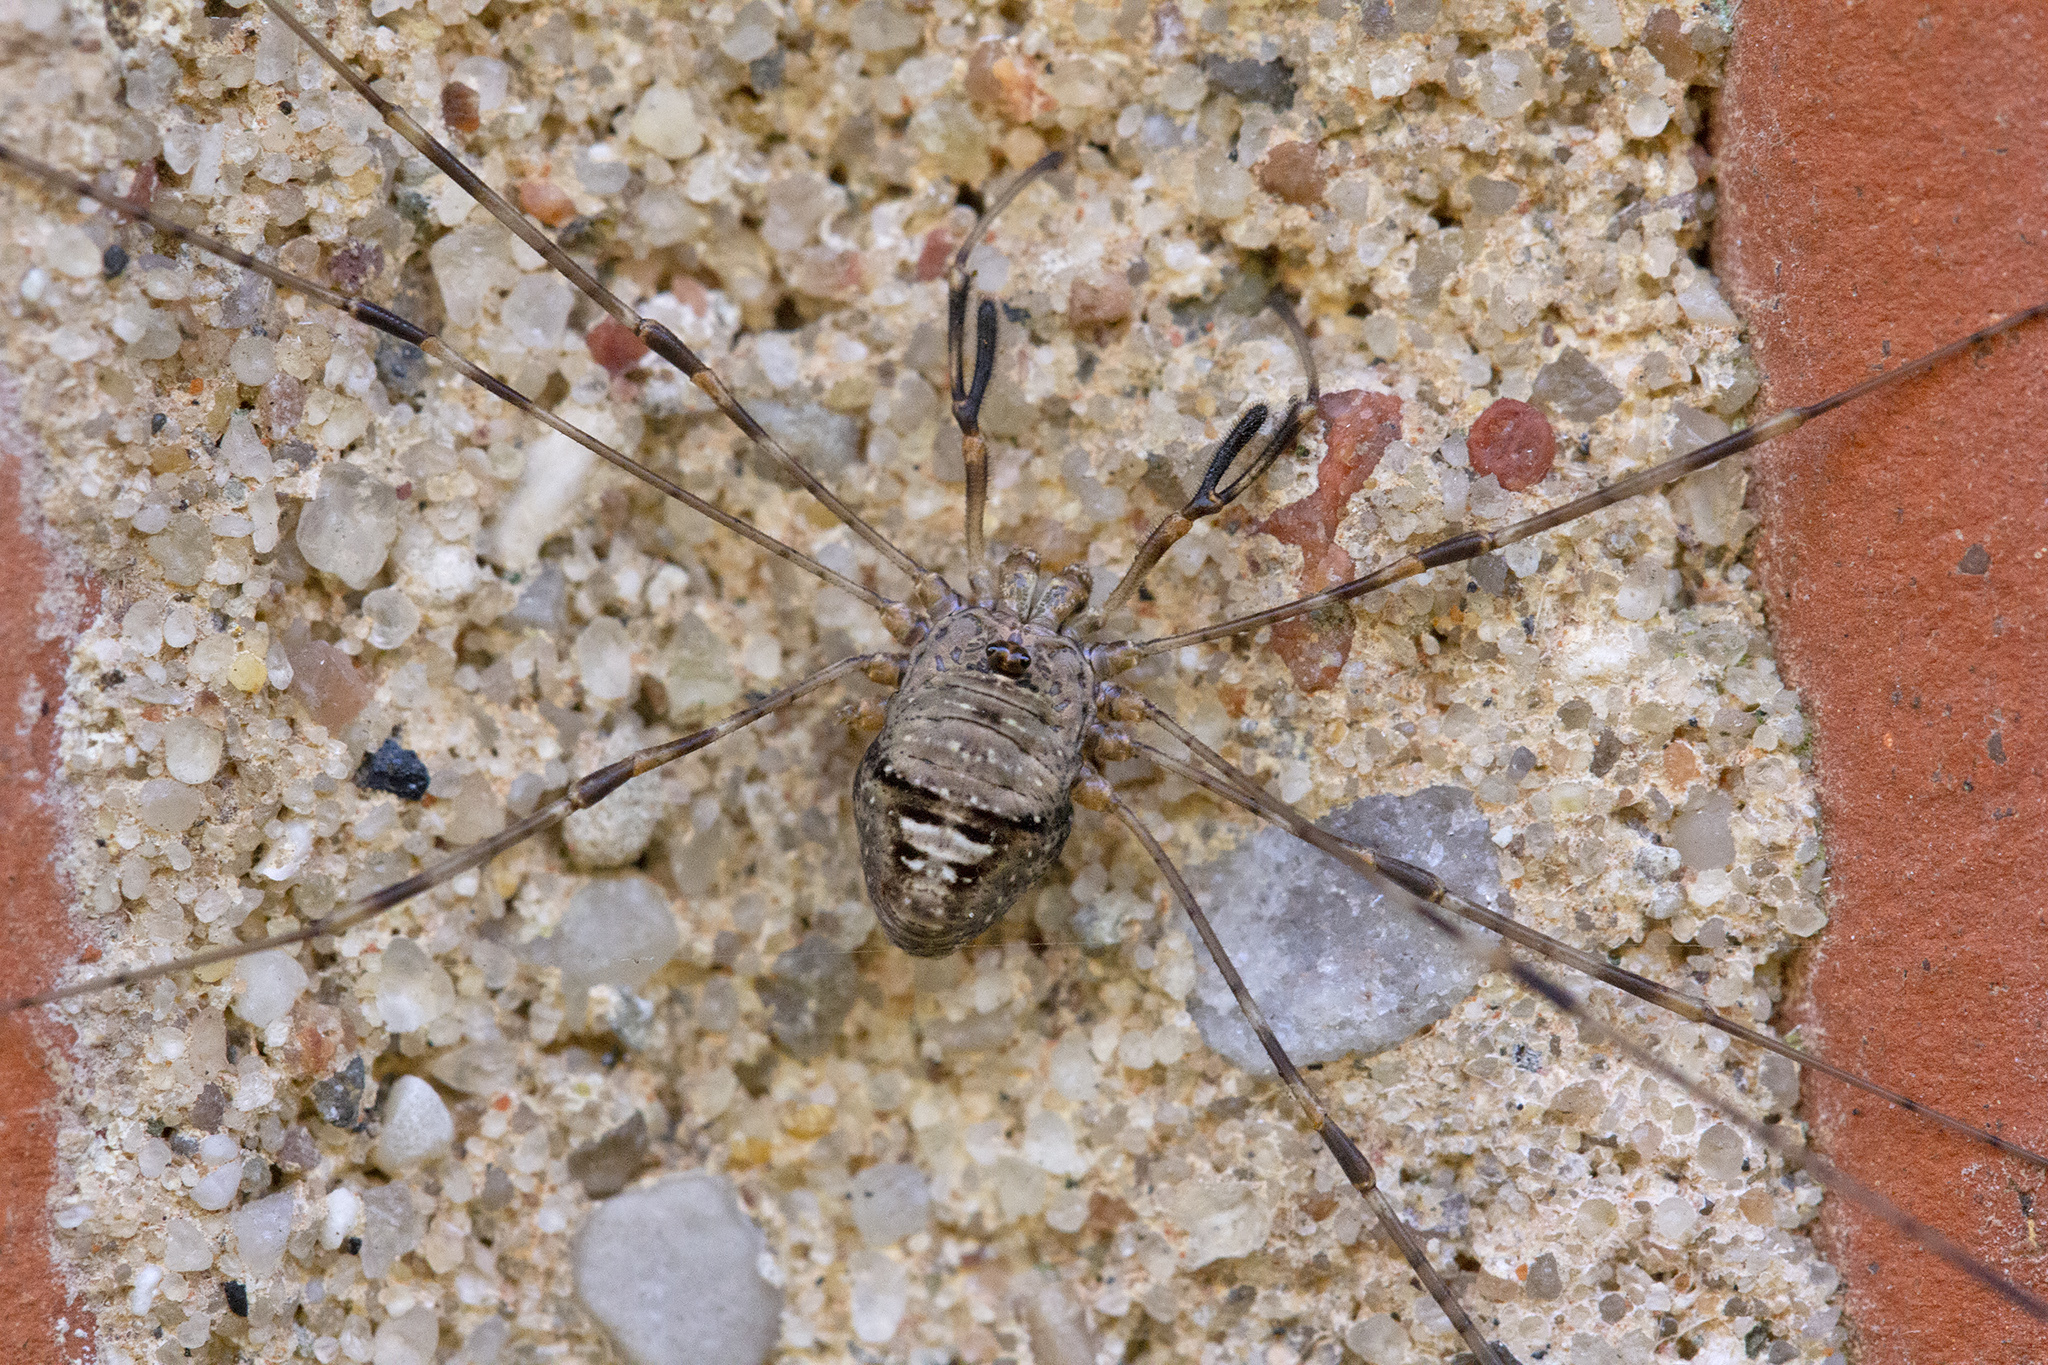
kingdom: Animalia
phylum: Arthropoda
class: Arachnida
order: Opiliones
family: Phalangiidae
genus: Dicranopalpus
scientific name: Dicranopalpus ramosus
